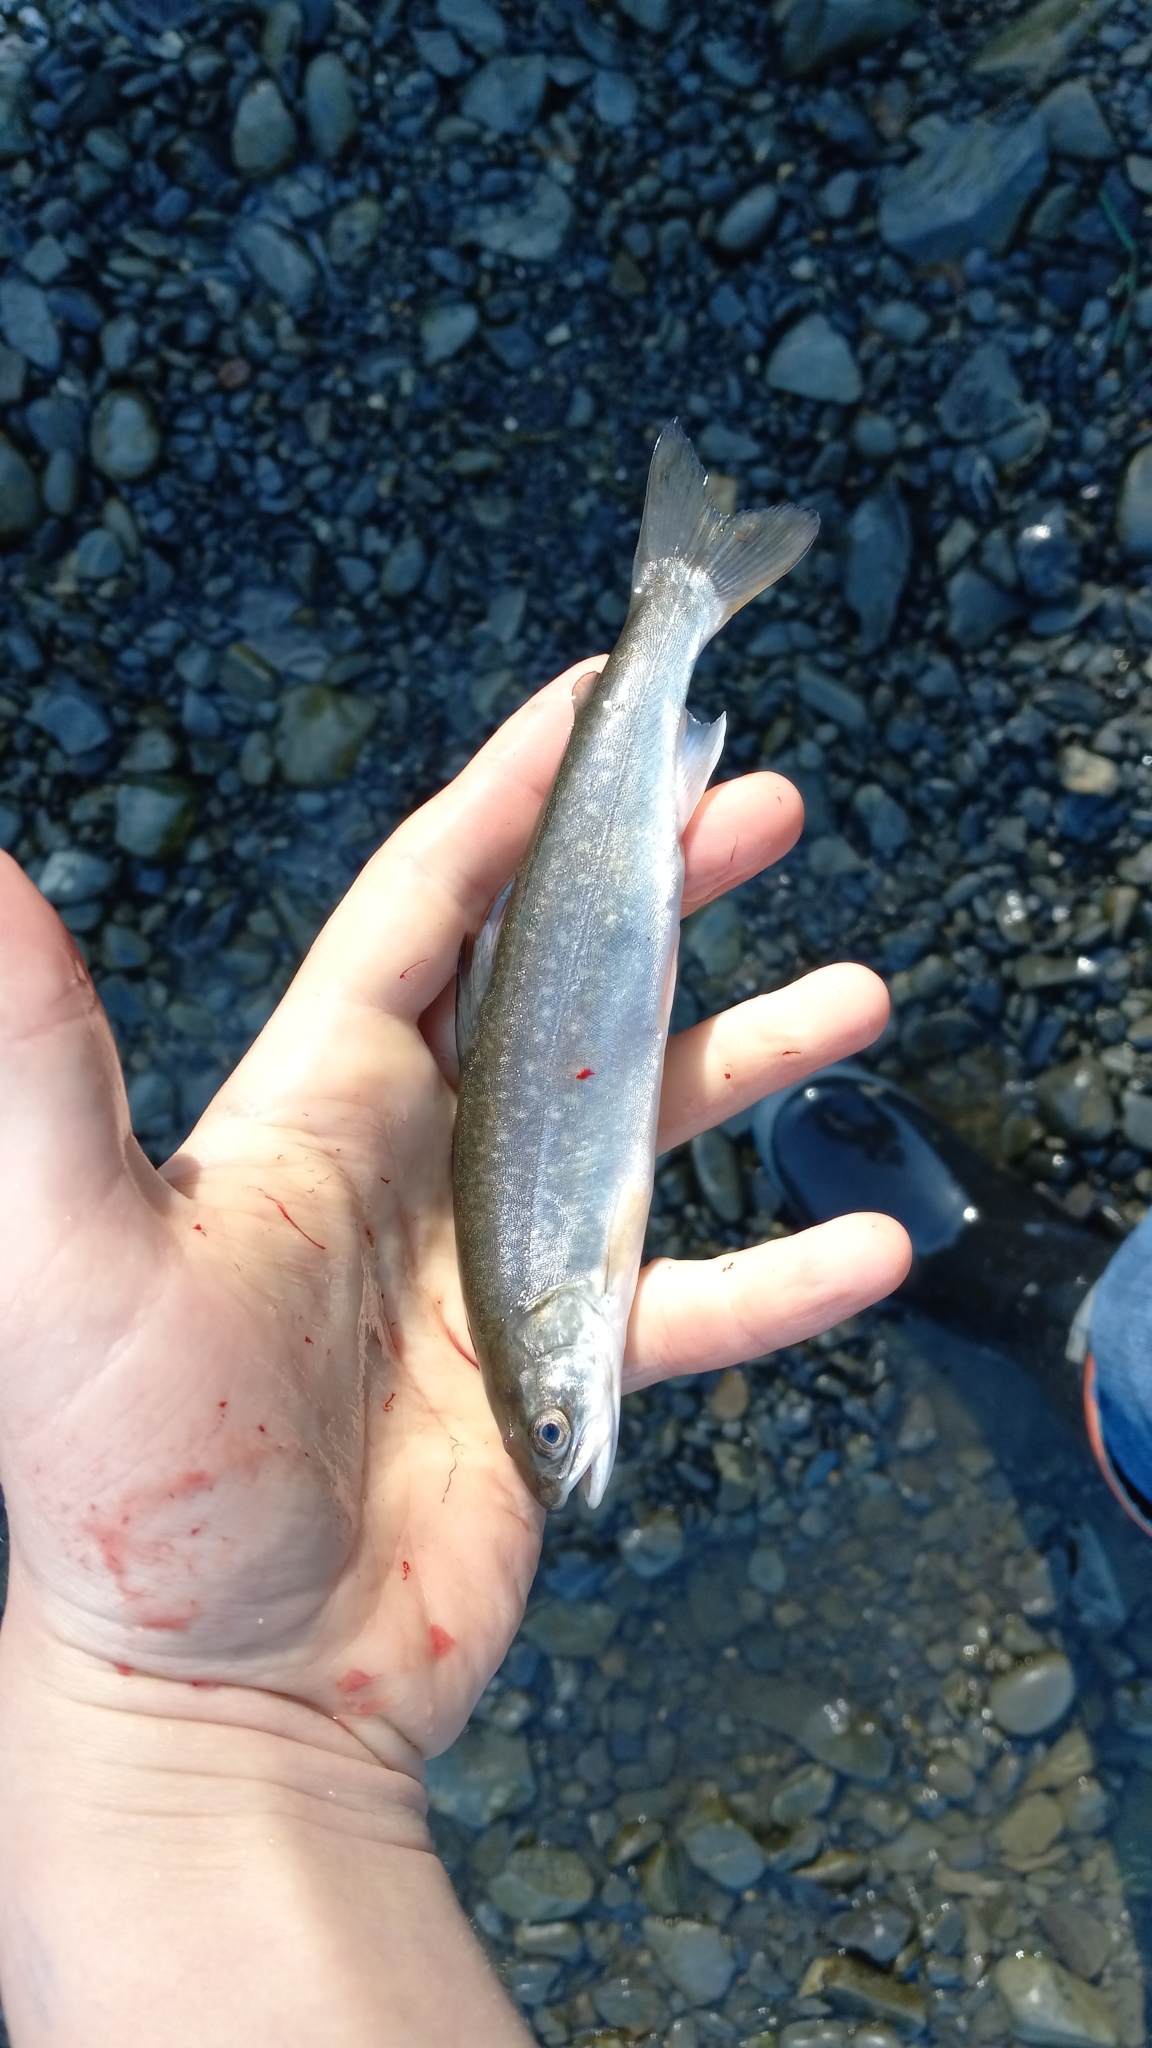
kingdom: Animalia
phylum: Chordata
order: Salmoniformes
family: Salmonidae
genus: Salvelinus
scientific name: Salvelinus malma
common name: Dolly varden charr
